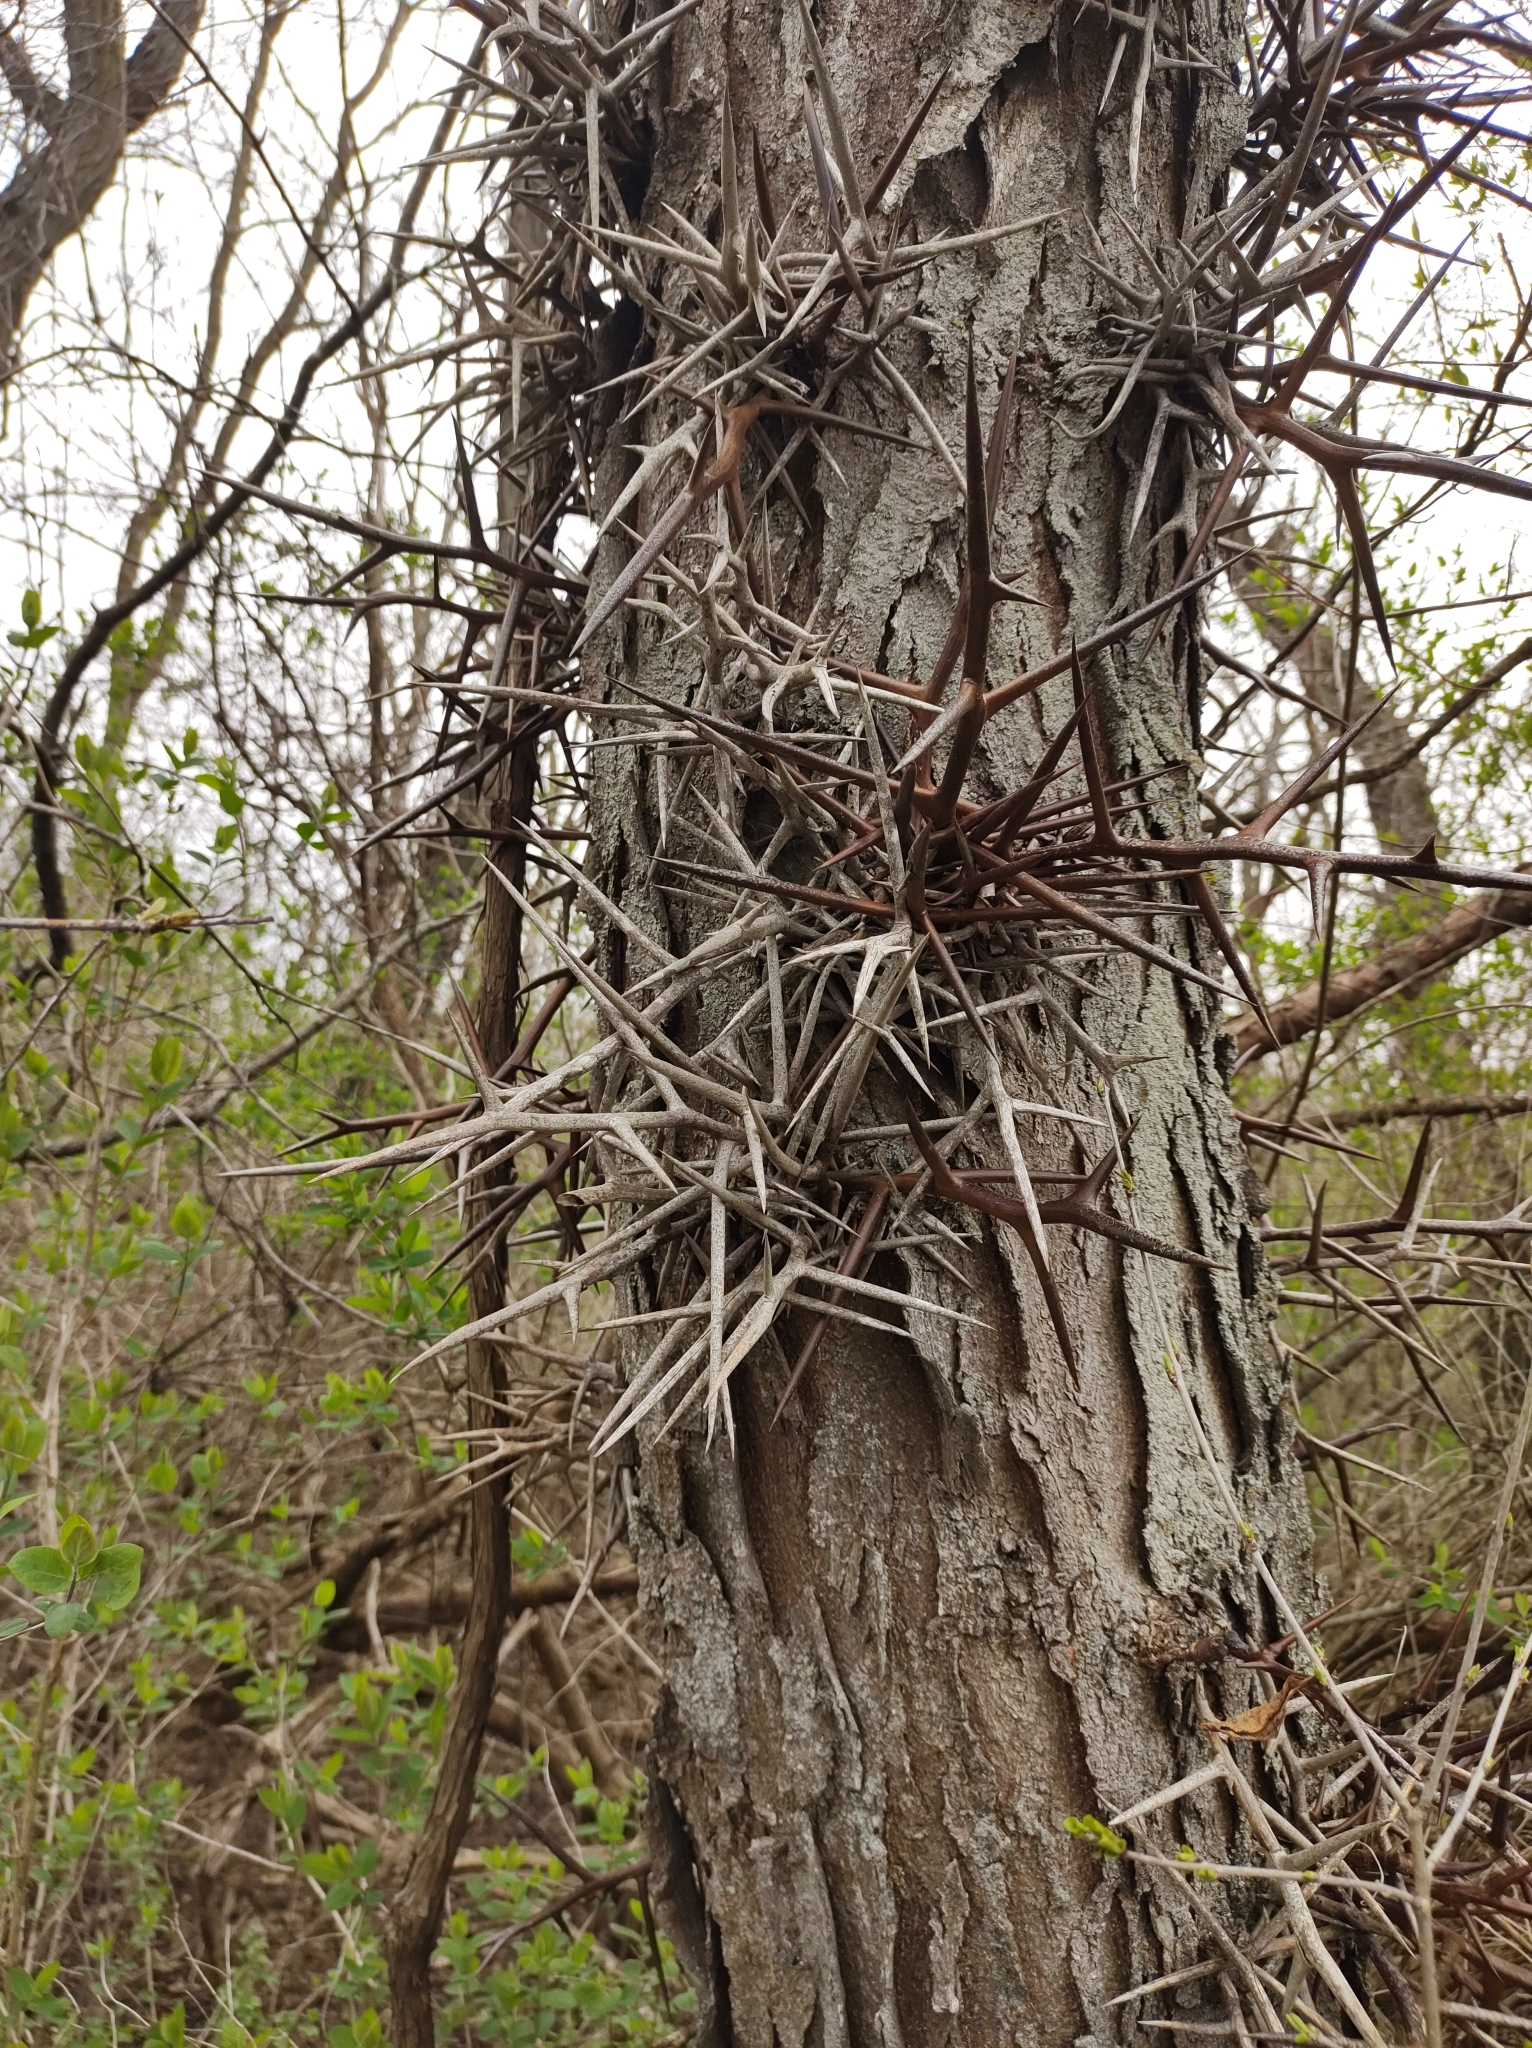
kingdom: Plantae
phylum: Tracheophyta
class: Magnoliopsida
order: Fabales
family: Fabaceae
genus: Gleditsia
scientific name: Gleditsia triacanthos
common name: Common honeylocust
